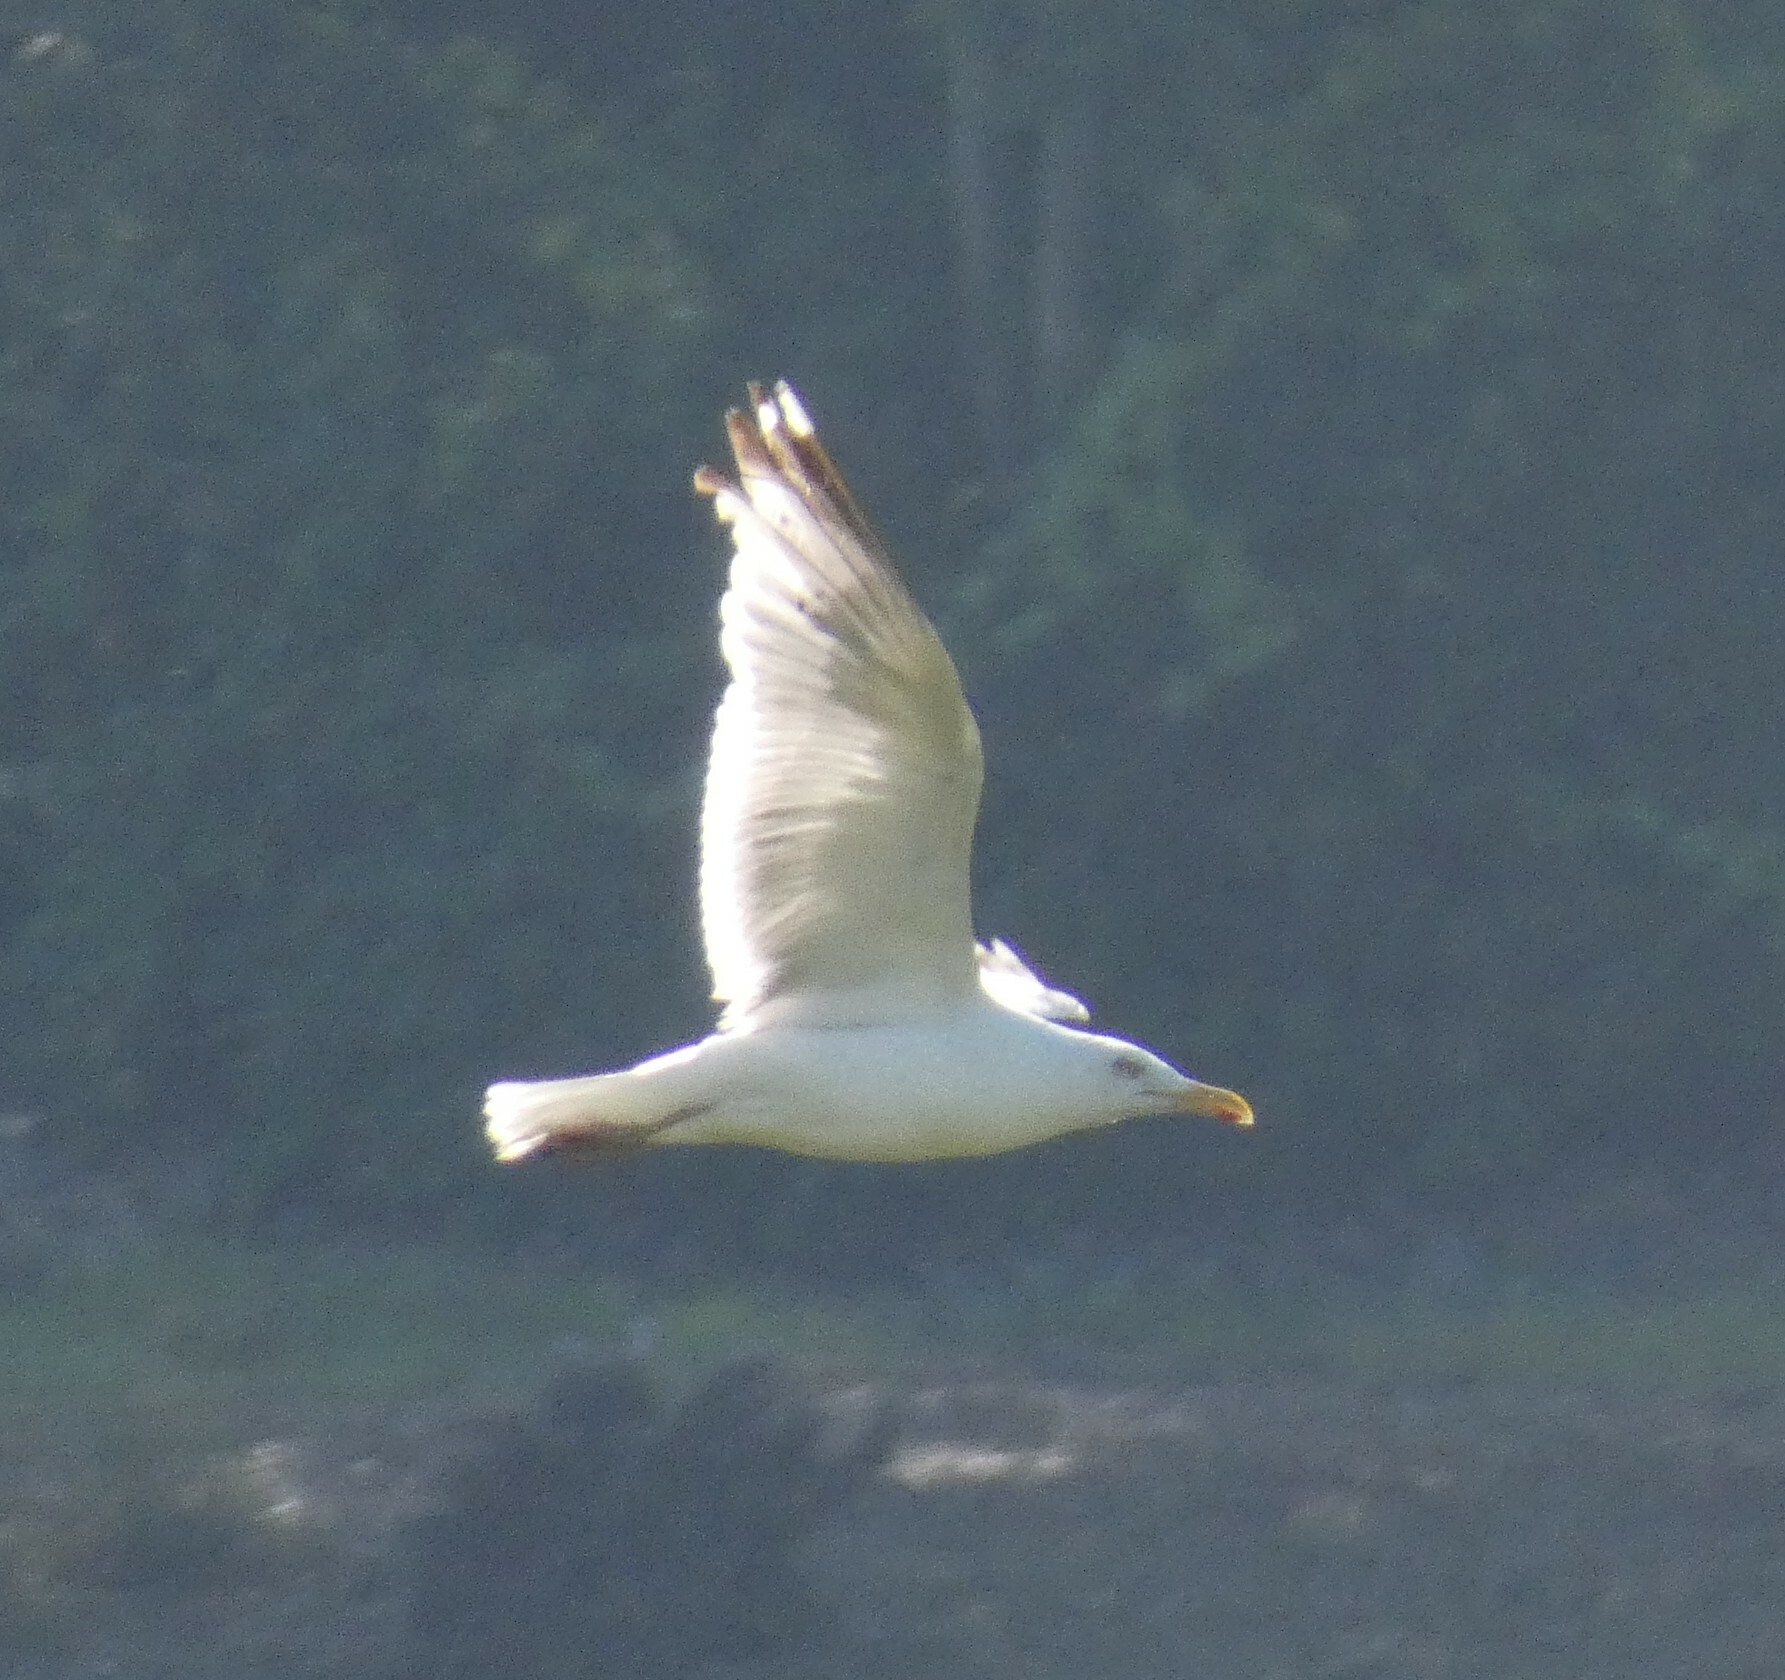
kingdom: Animalia
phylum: Chordata
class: Aves
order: Charadriiformes
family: Laridae
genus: Larus
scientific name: Larus argentatus
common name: Herring gull
